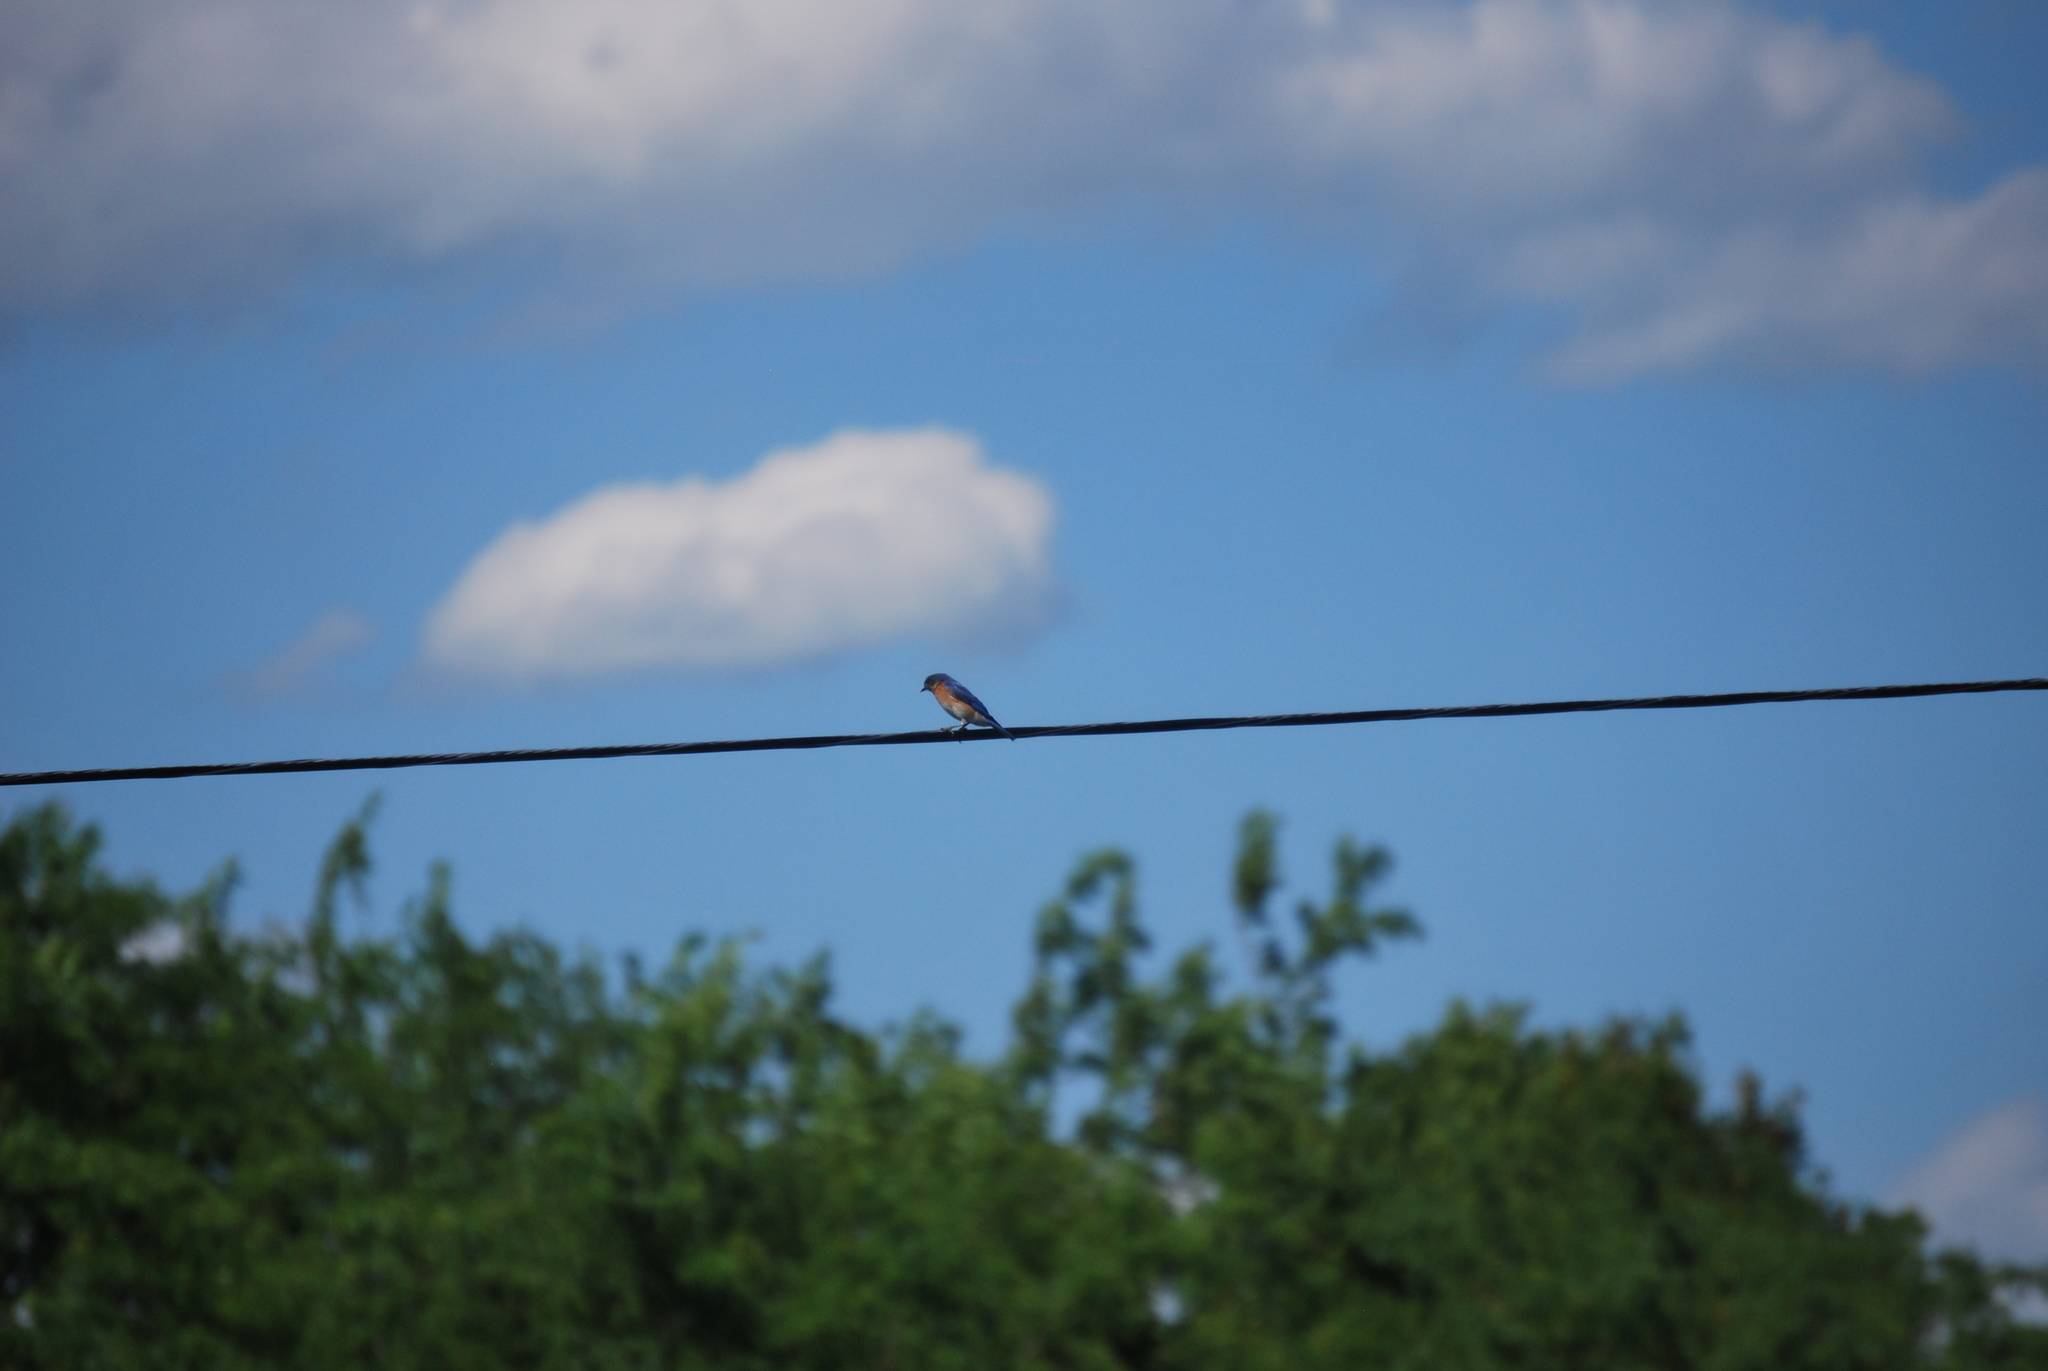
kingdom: Animalia
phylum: Chordata
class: Aves
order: Passeriformes
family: Turdidae
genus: Sialia
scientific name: Sialia sialis
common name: Eastern bluebird
